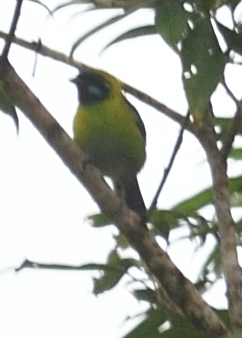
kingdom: Animalia
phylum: Chordata
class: Aves
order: Passeriformes
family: Thraupidae
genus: Tangara
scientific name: Tangara johannae
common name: Blue-whiskered tanager
